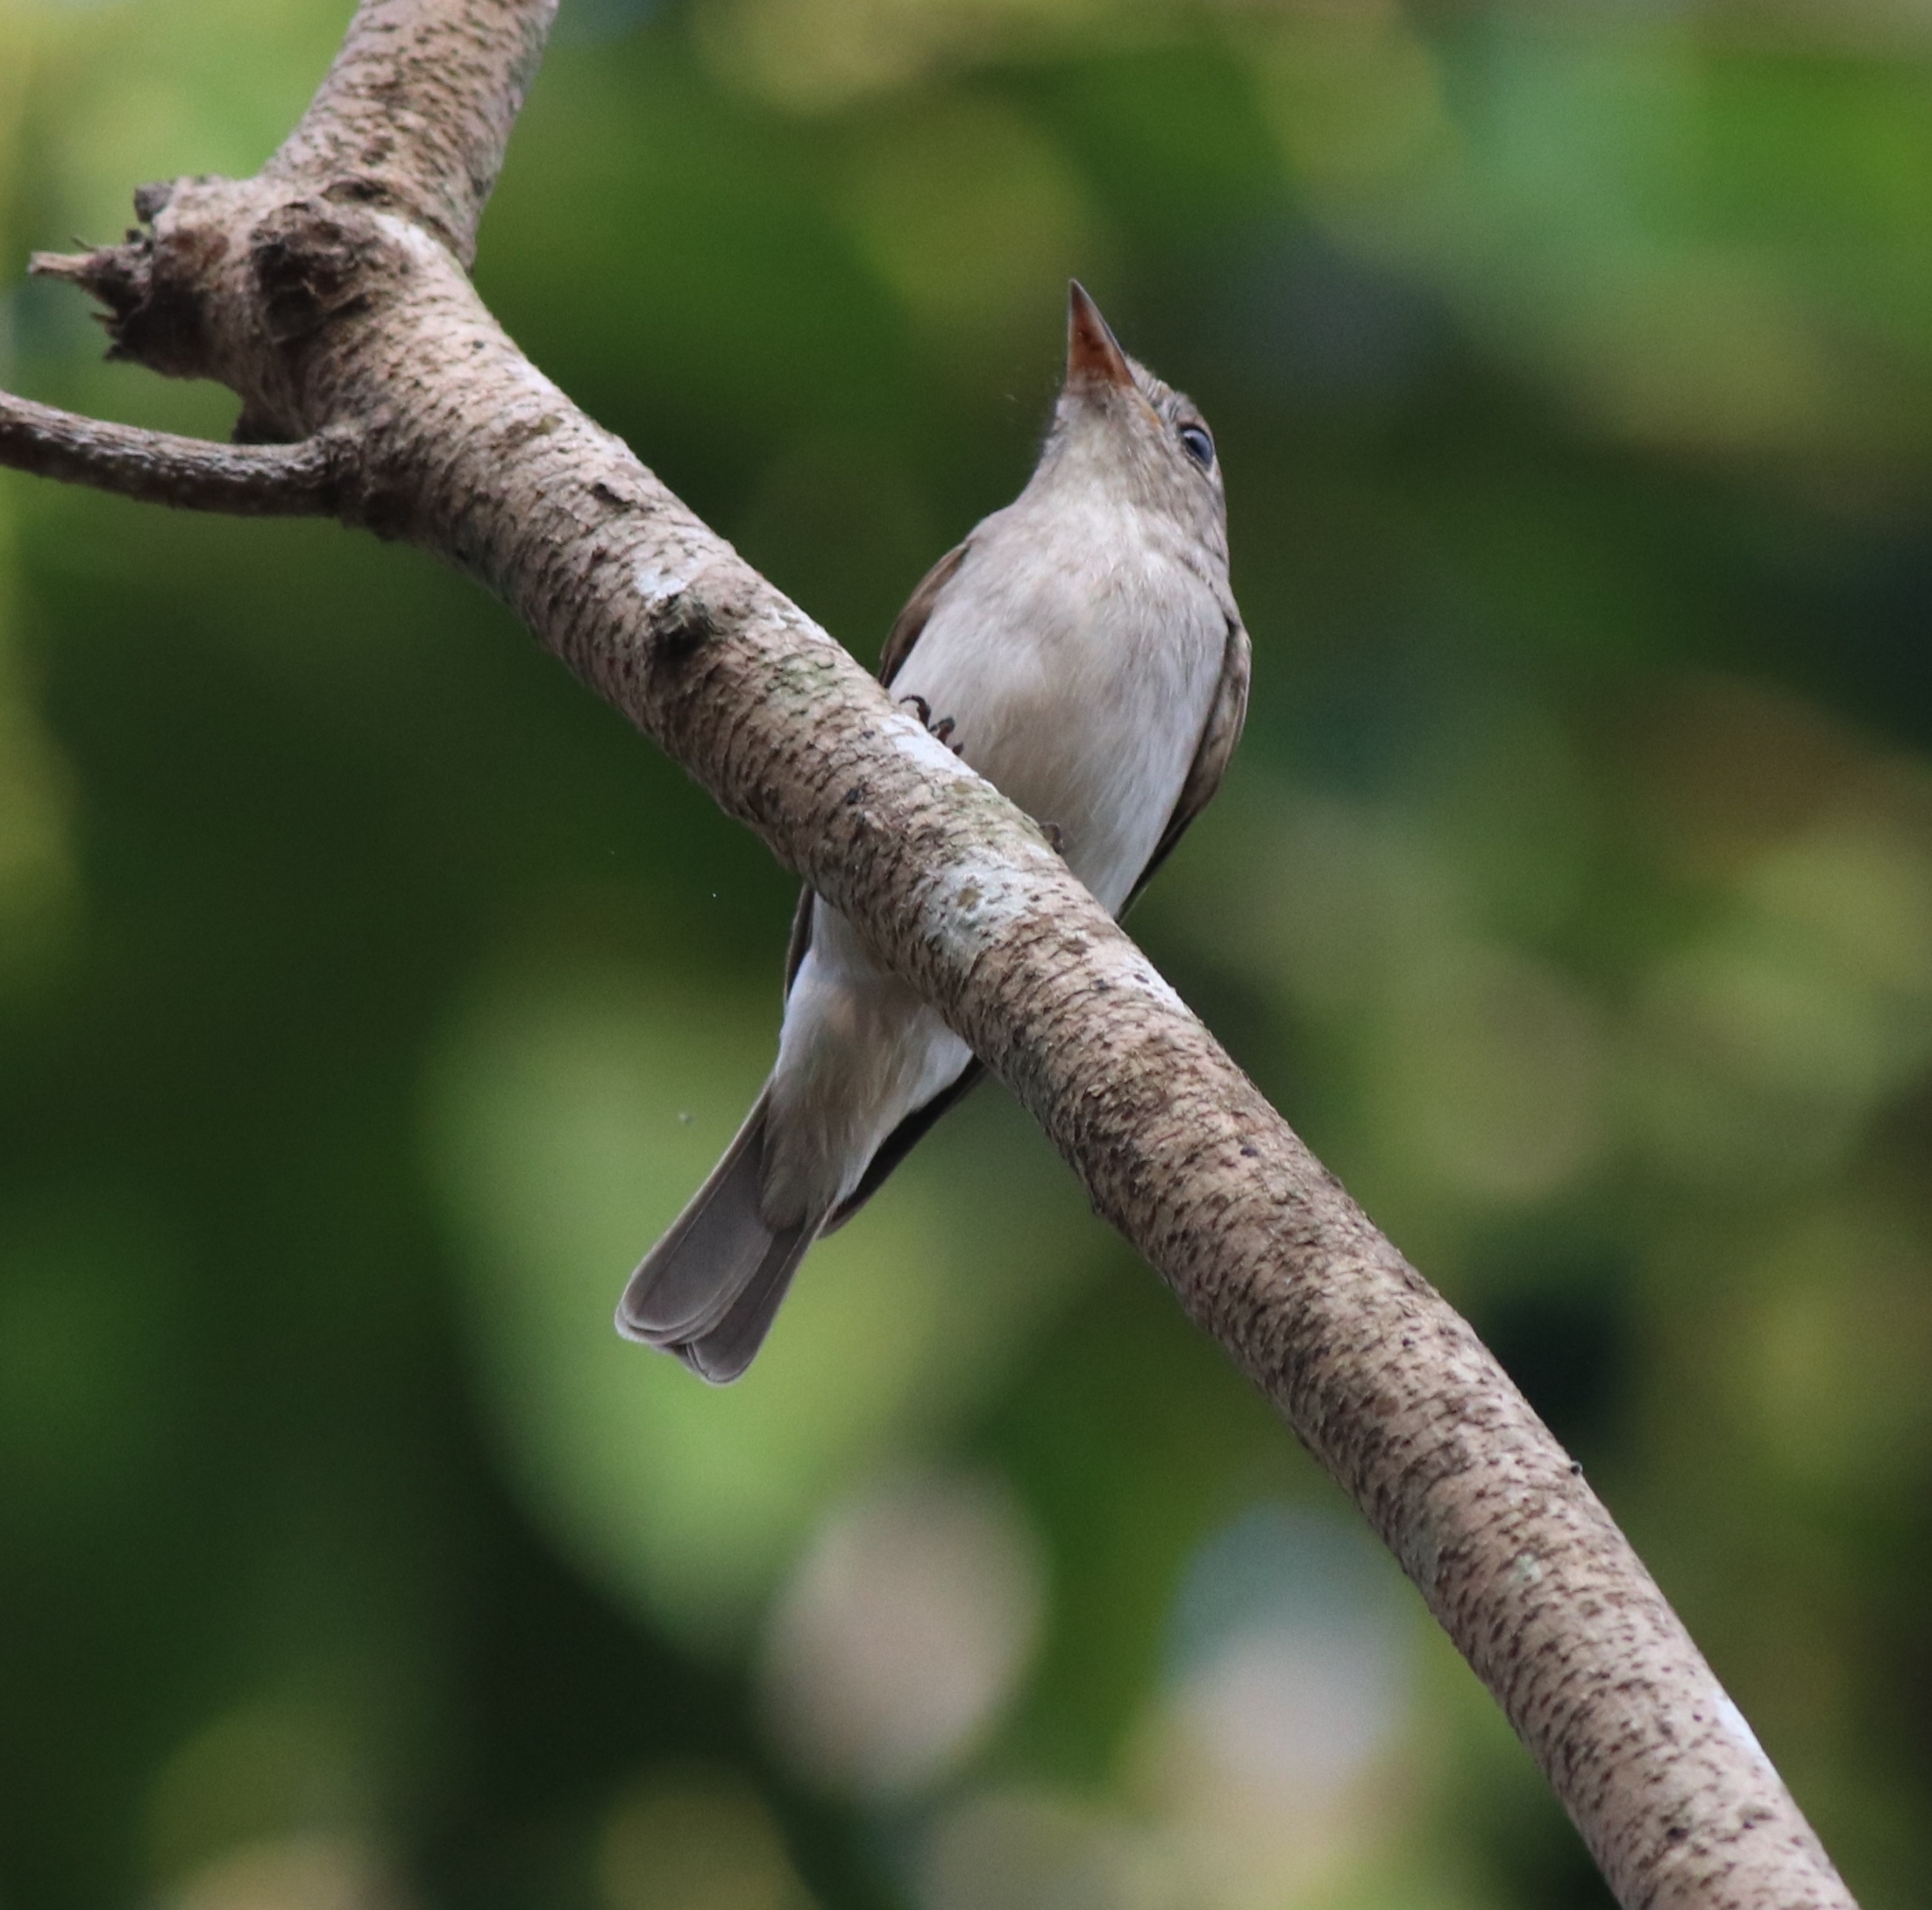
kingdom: Animalia
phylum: Chordata
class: Aves
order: Passeriformes
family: Muscicapidae
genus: Muscicapa
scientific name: Muscicapa latirostris
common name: Asian brown flycatcher
